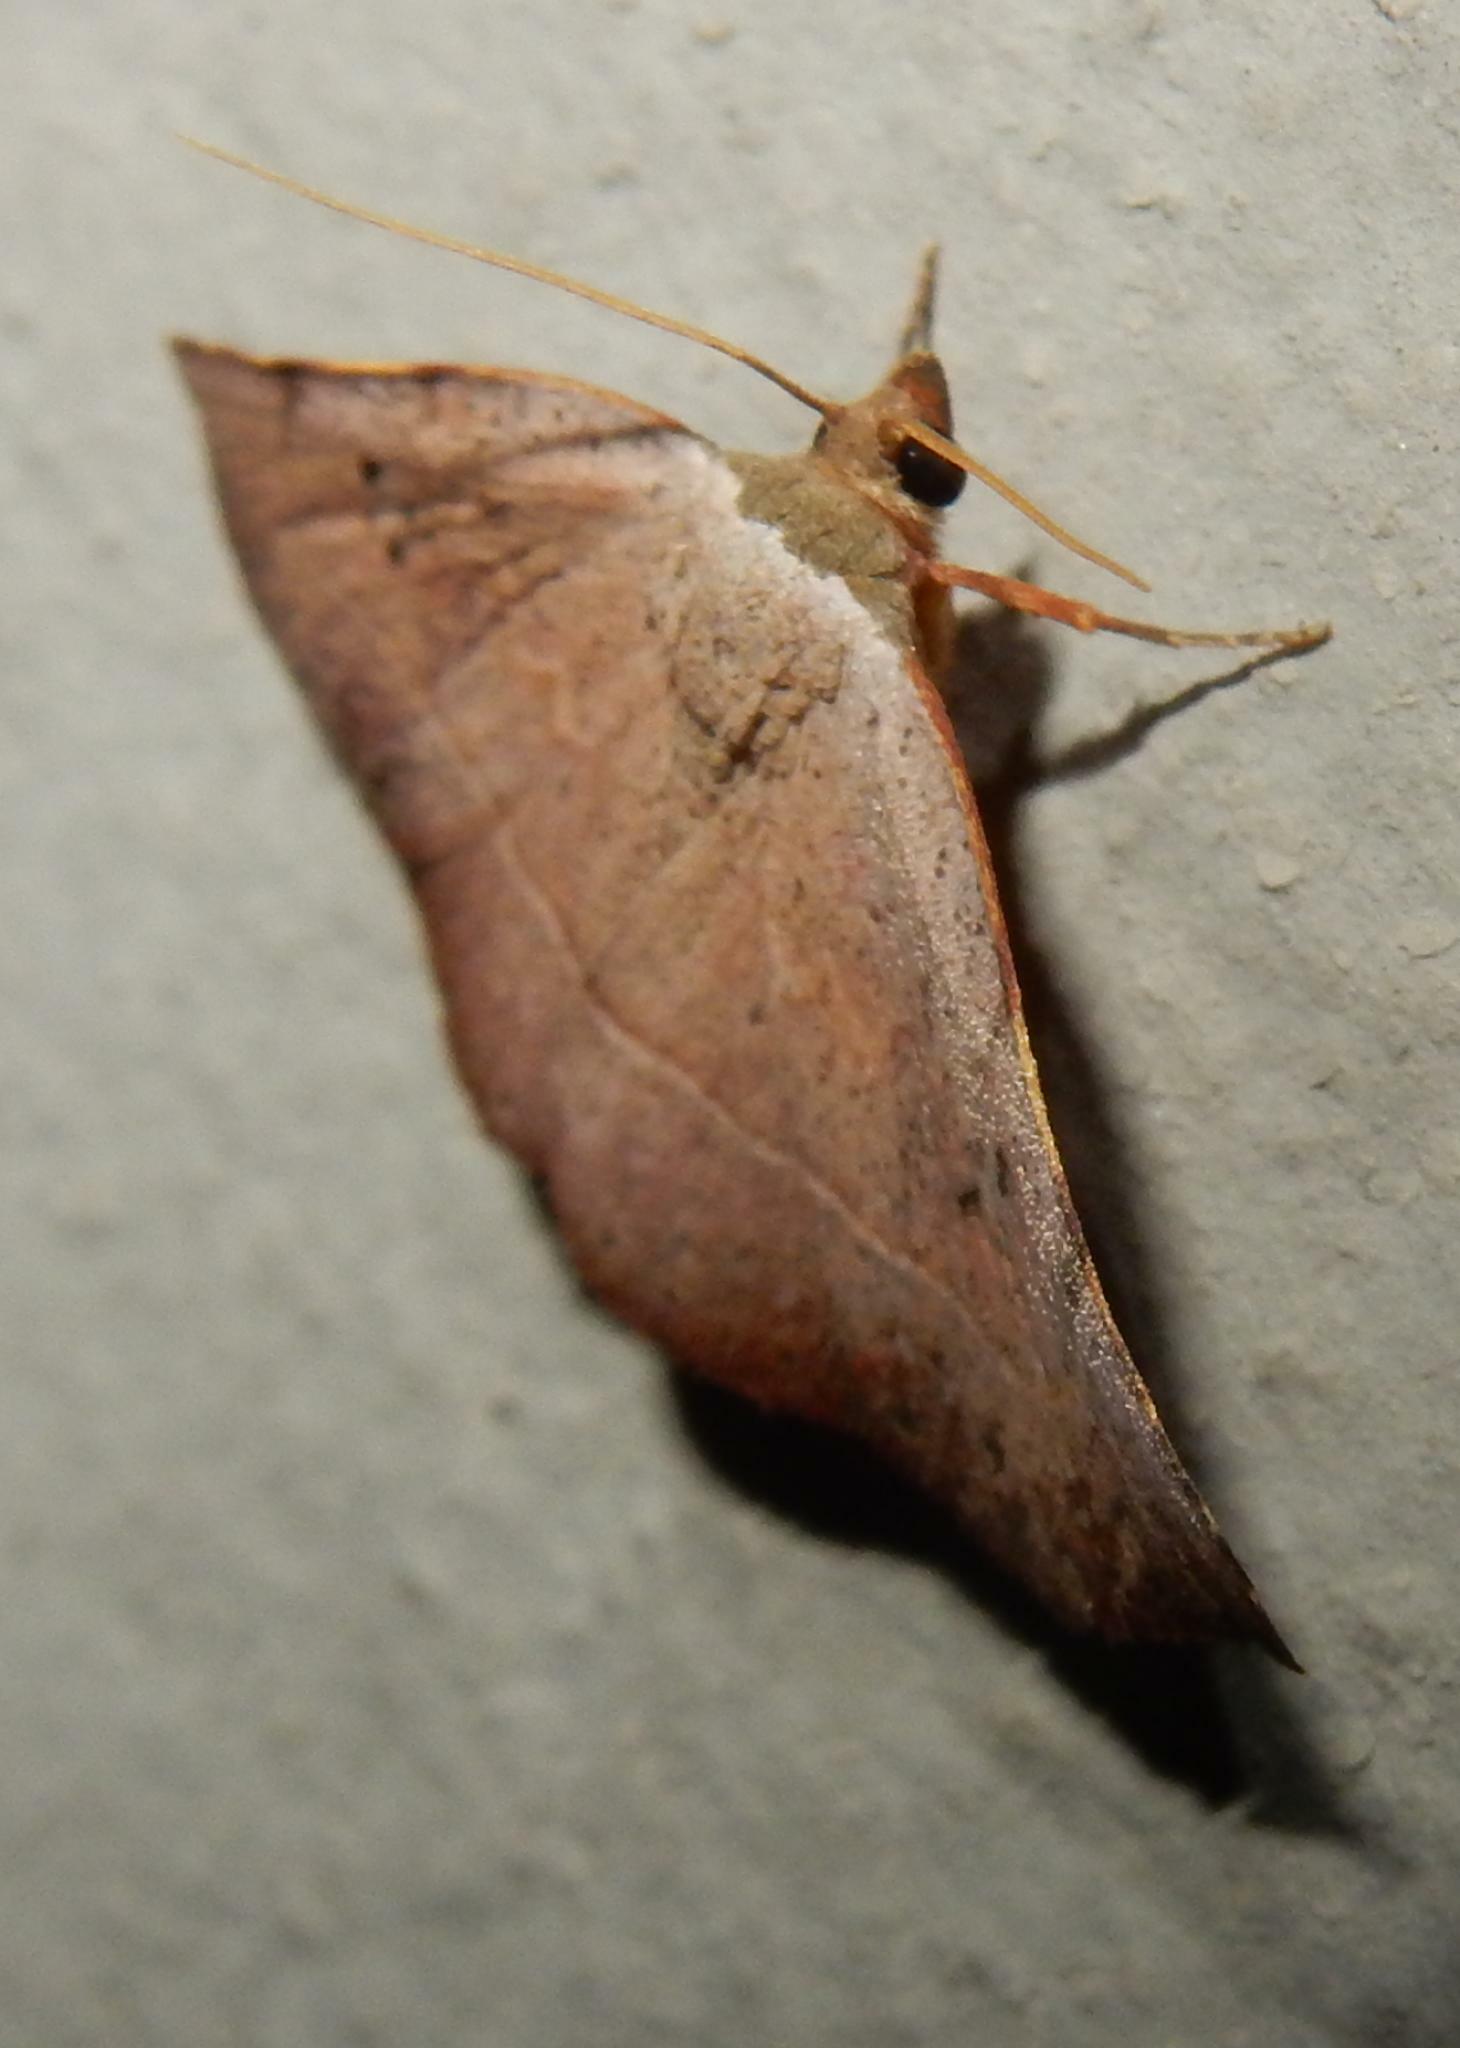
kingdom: Animalia
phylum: Arthropoda
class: Insecta
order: Lepidoptera
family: Noctuidae
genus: Cautatha
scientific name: Cautatha drepanodes
